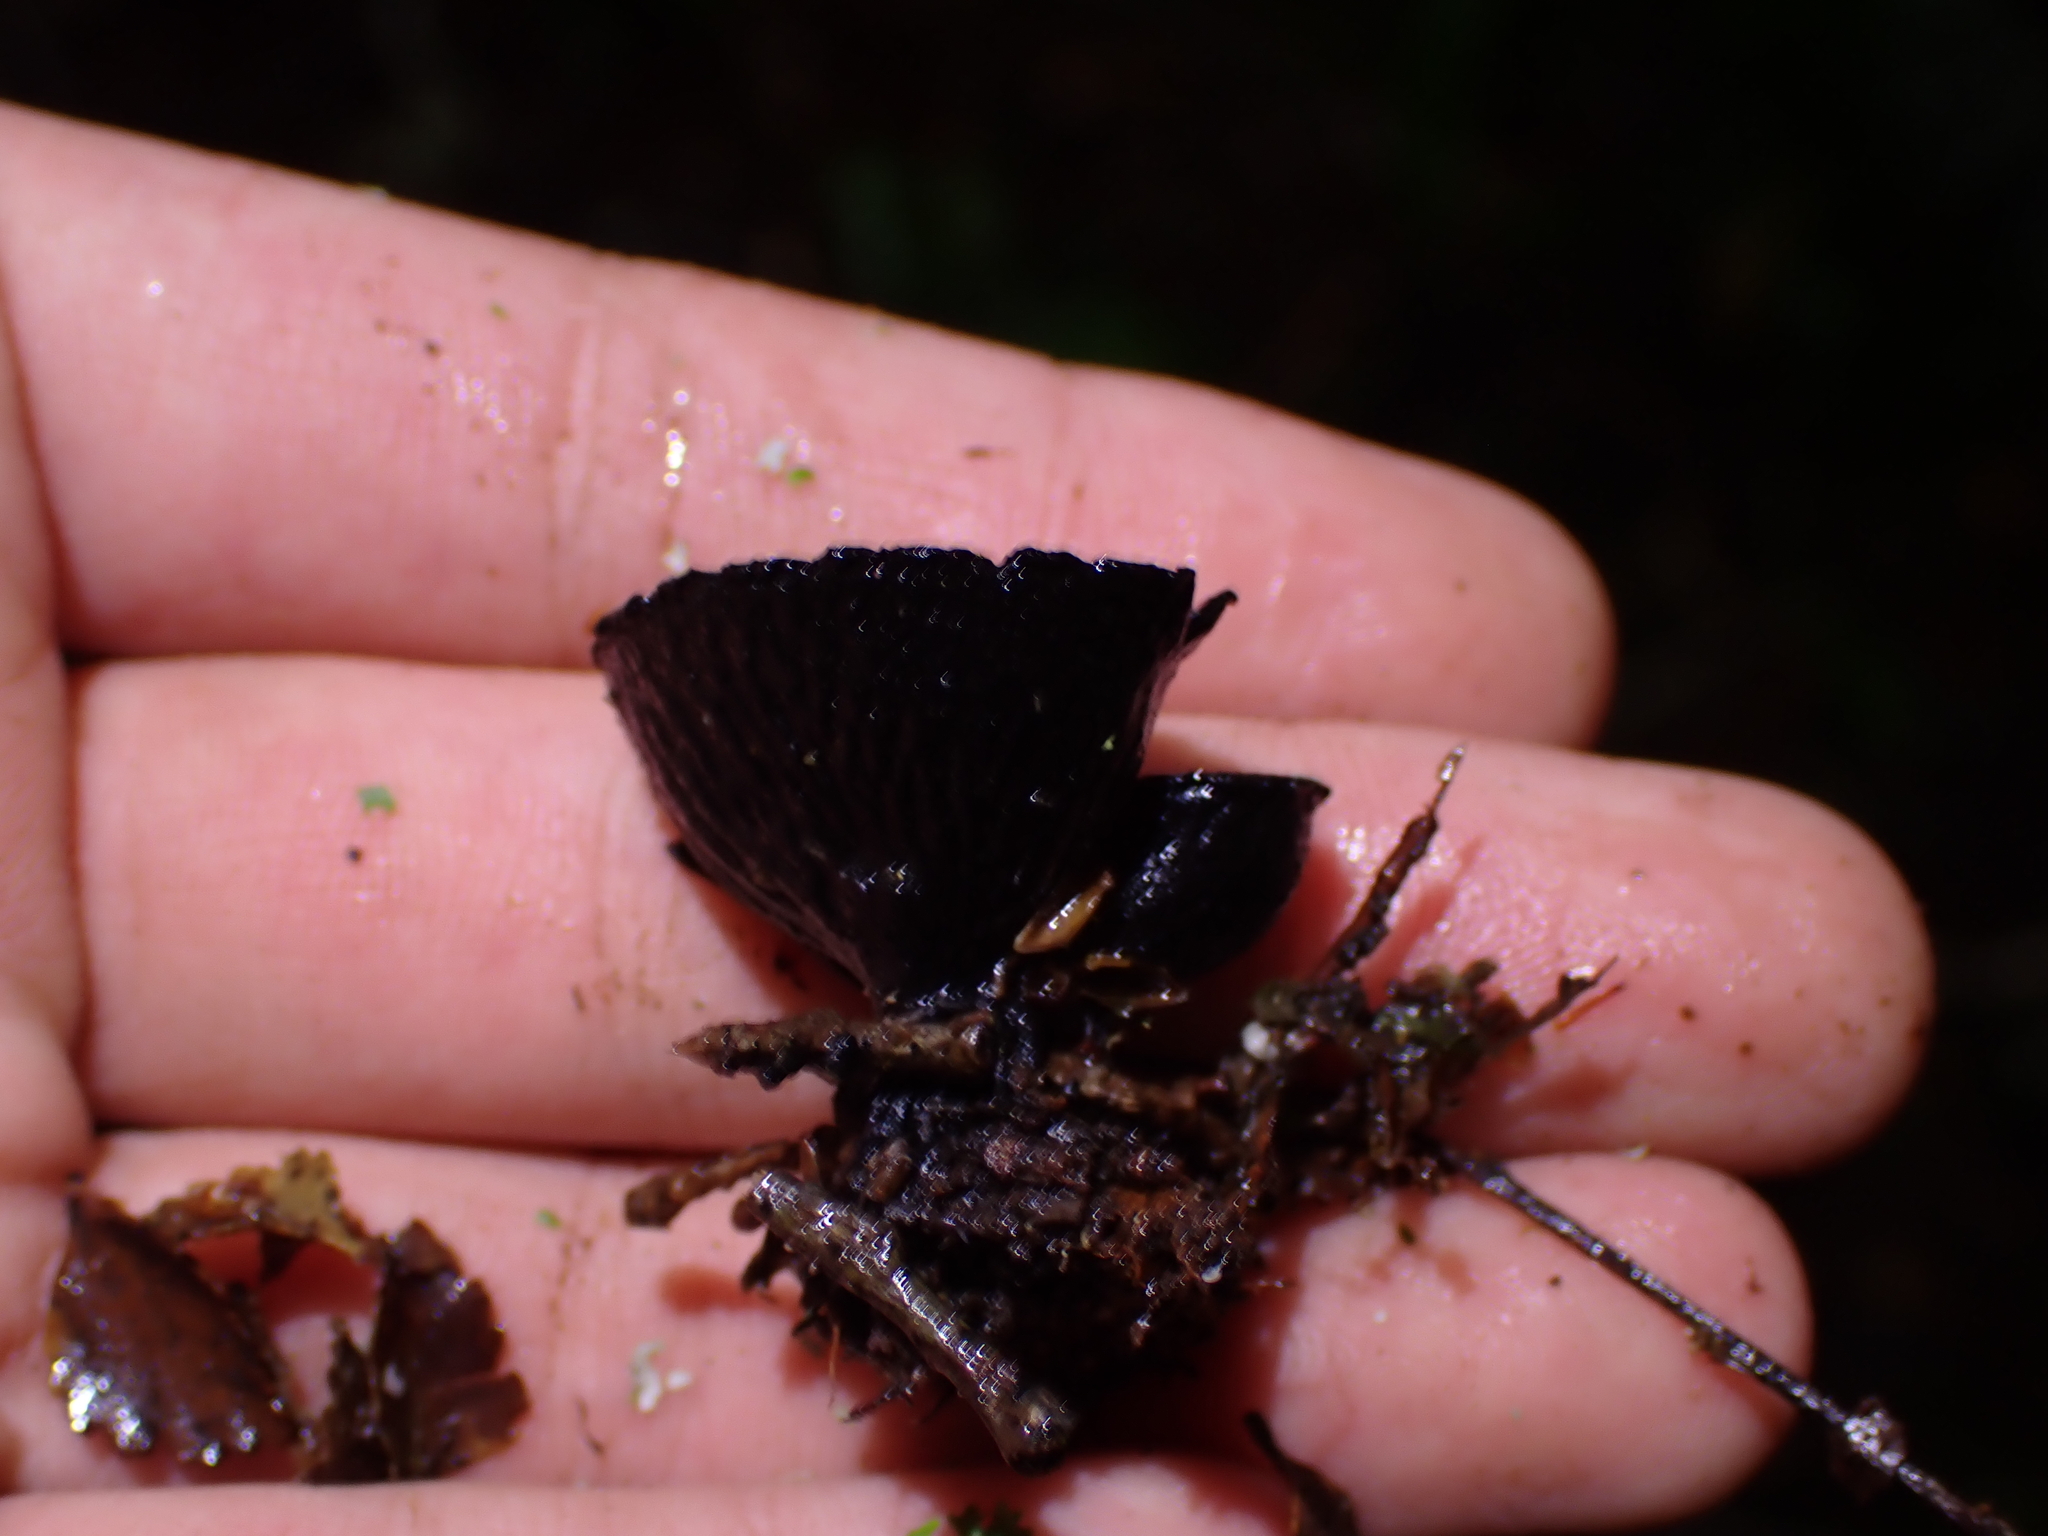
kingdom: Fungi
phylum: Ascomycota
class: Pezizomycetes
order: Pezizales
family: Sarcosomataceae
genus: Plectania
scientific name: Plectania rhytidia
